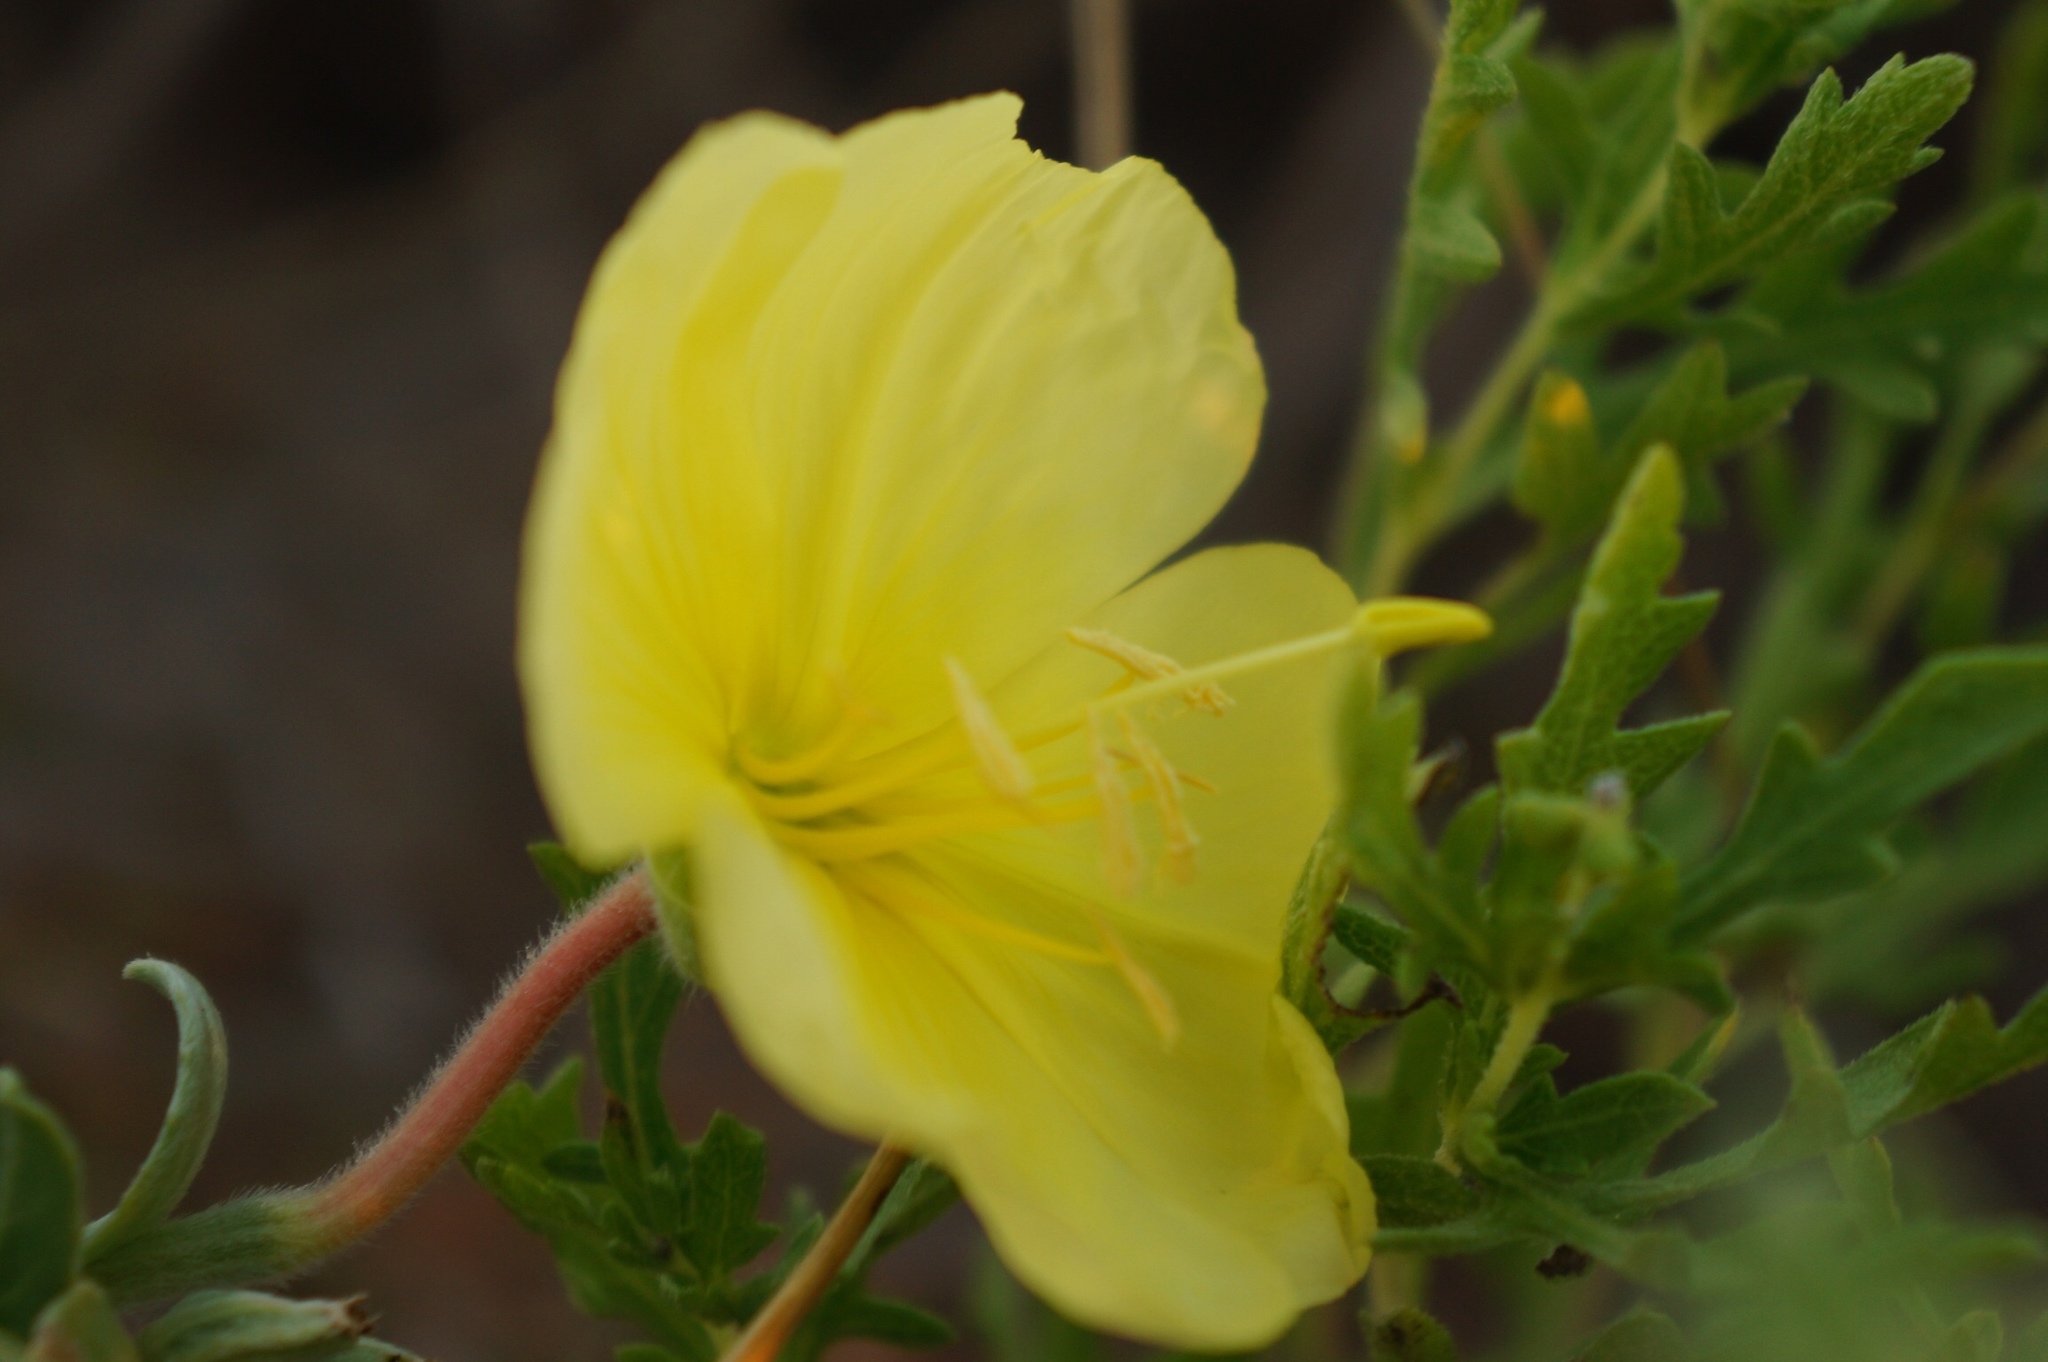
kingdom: Plantae
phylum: Tracheophyta
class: Magnoliopsida
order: Myrtales
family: Onagraceae
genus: Oenothera
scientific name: Oenothera drummondii
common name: Beach evening-primrose
